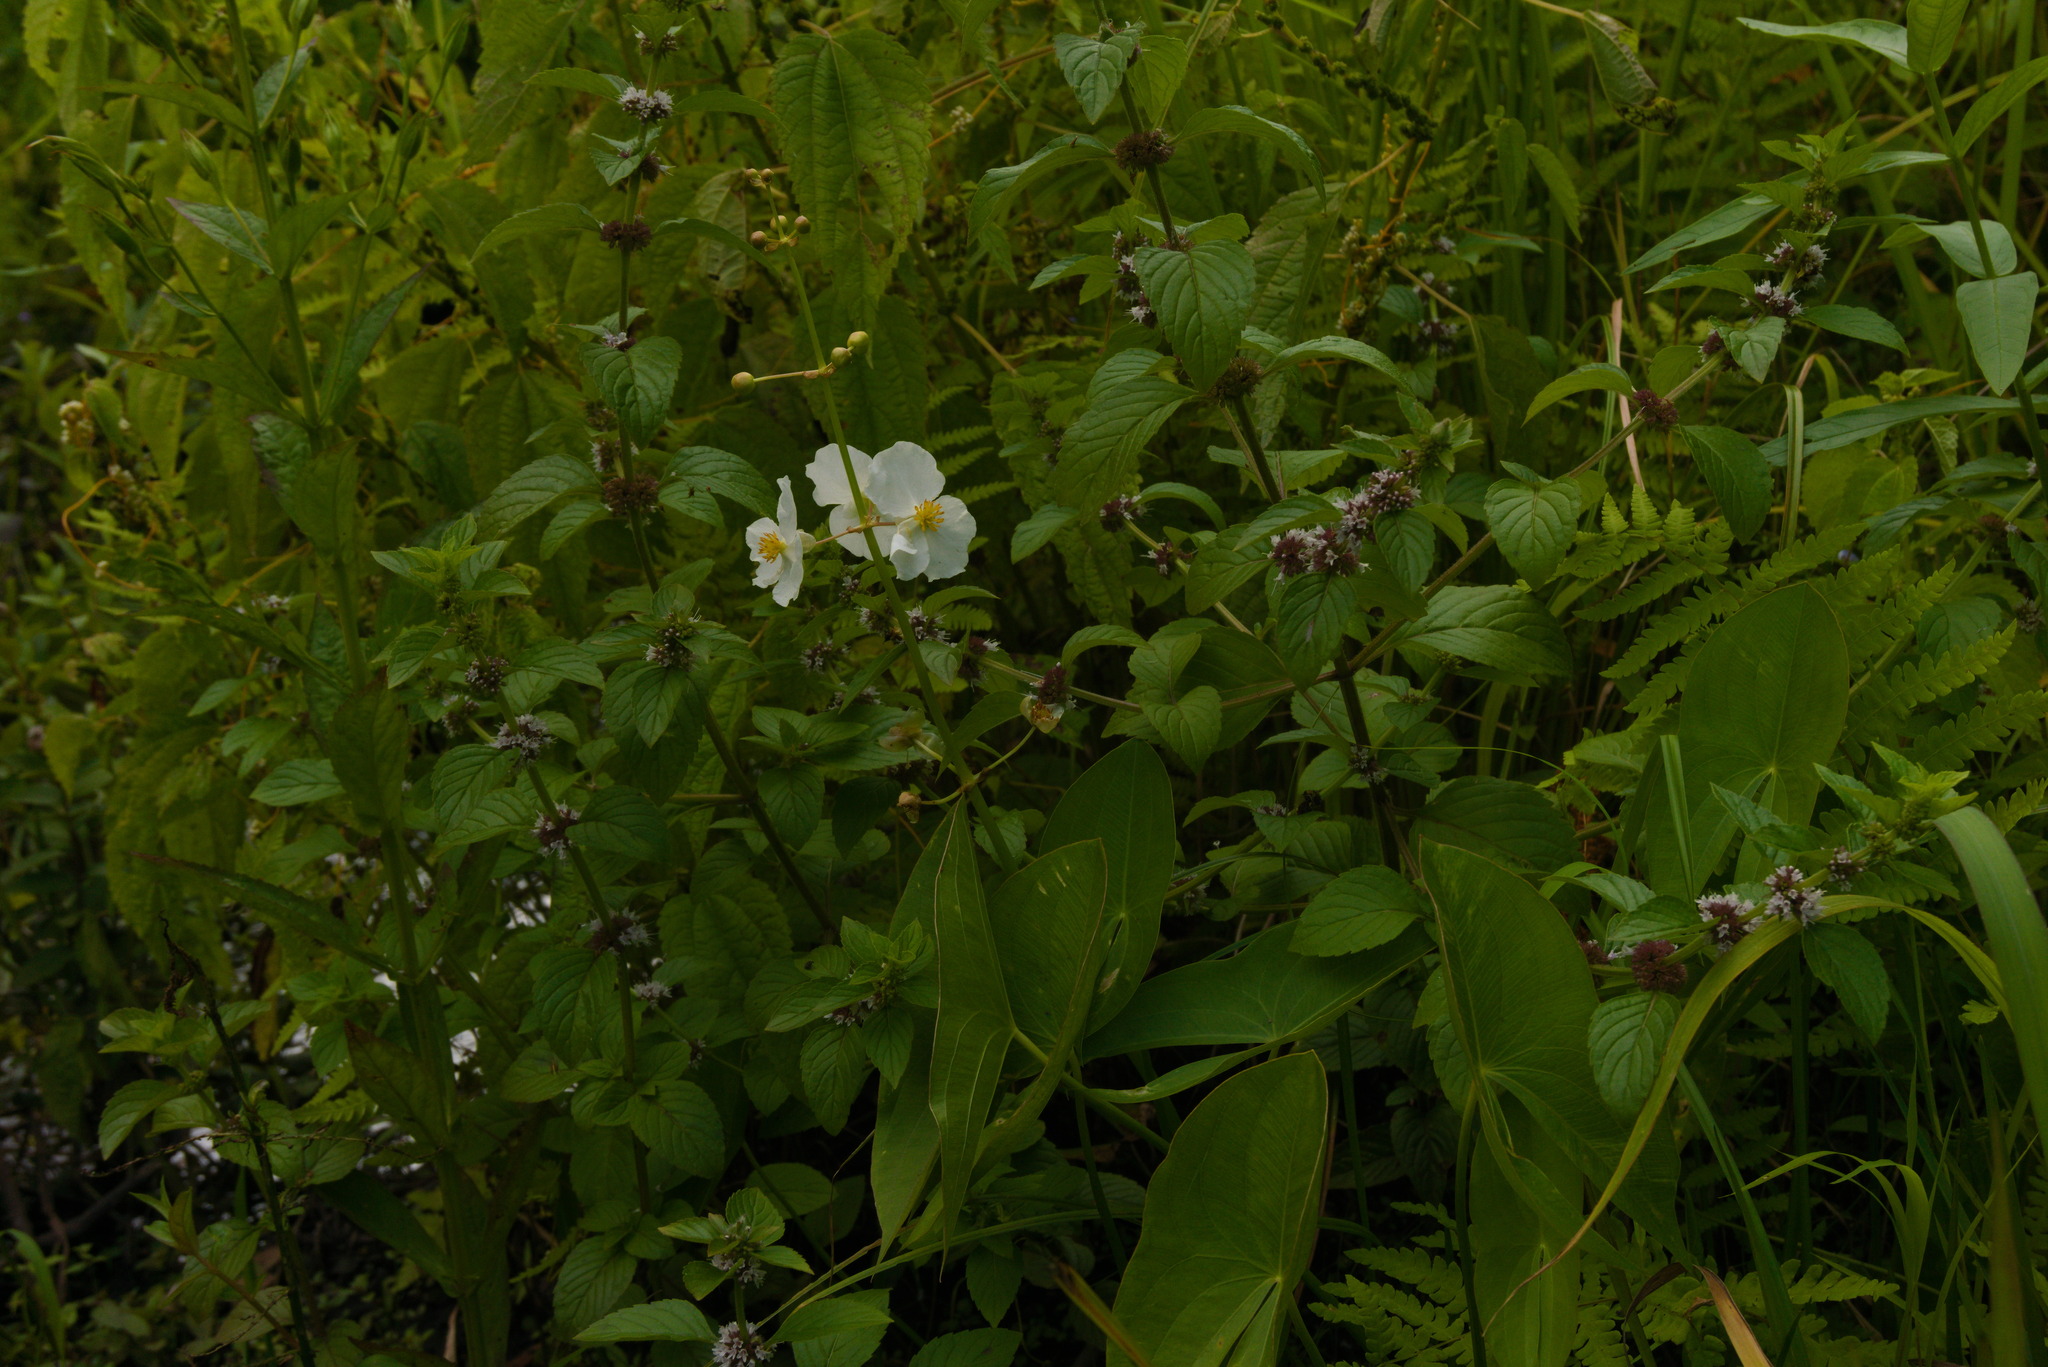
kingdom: Plantae
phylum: Tracheophyta
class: Liliopsida
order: Alismatales
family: Alismataceae
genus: Sagittaria
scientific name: Sagittaria latifolia
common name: Duck-potato
